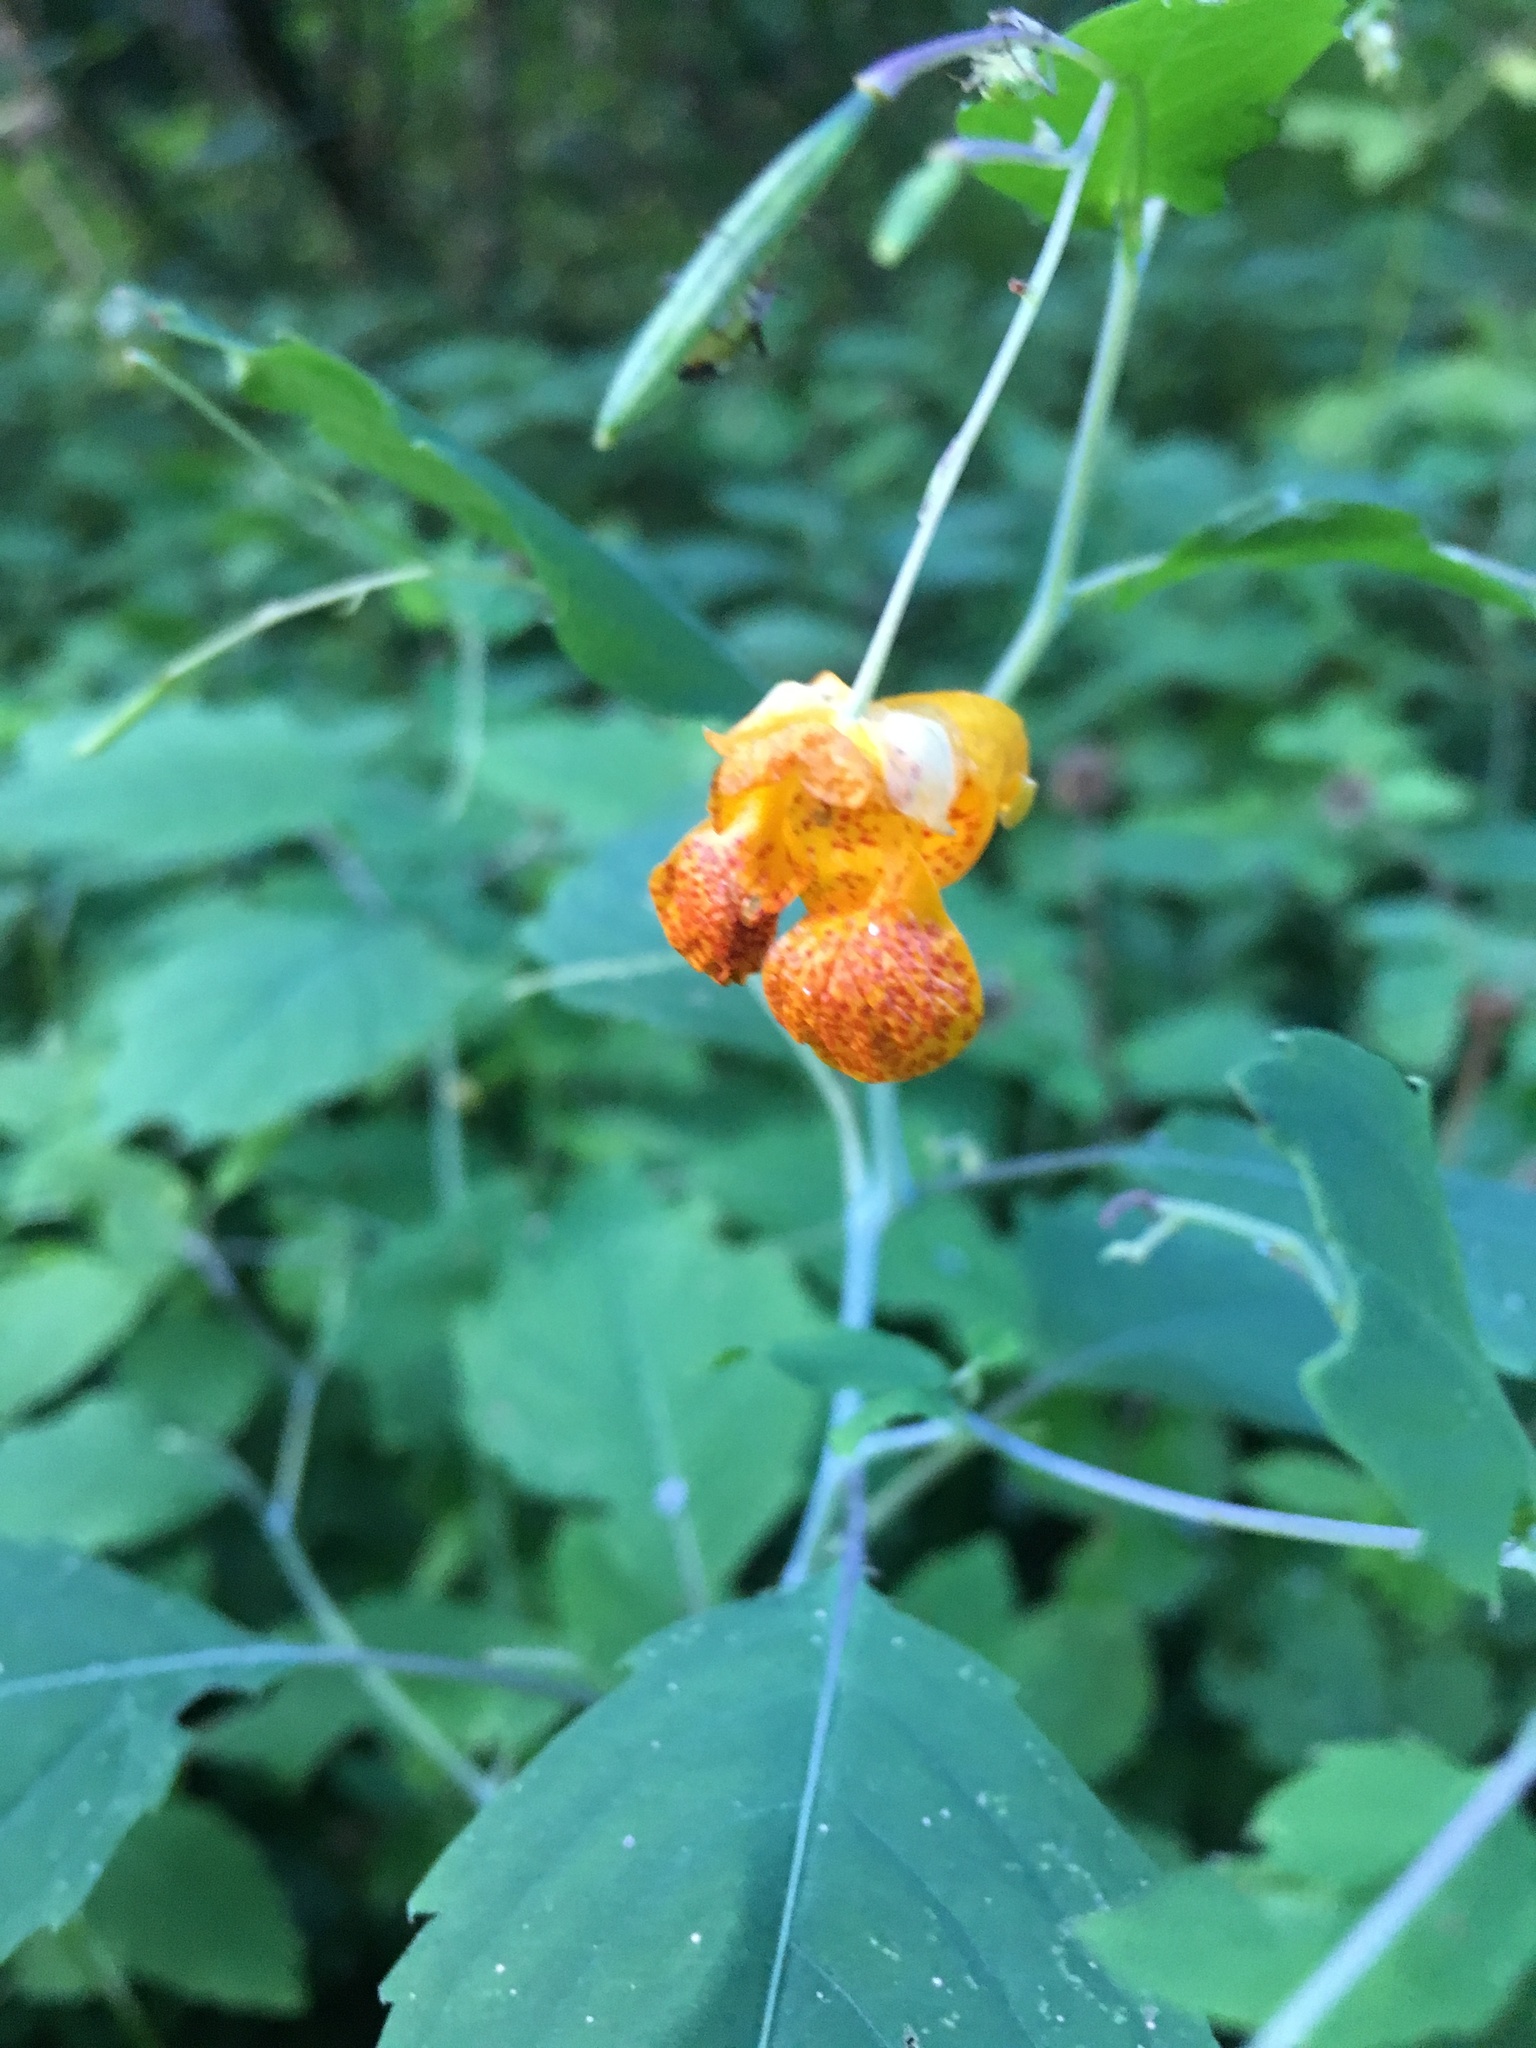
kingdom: Plantae
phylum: Tracheophyta
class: Magnoliopsida
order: Ericales
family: Balsaminaceae
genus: Impatiens
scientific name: Impatiens capensis
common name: Orange balsam
